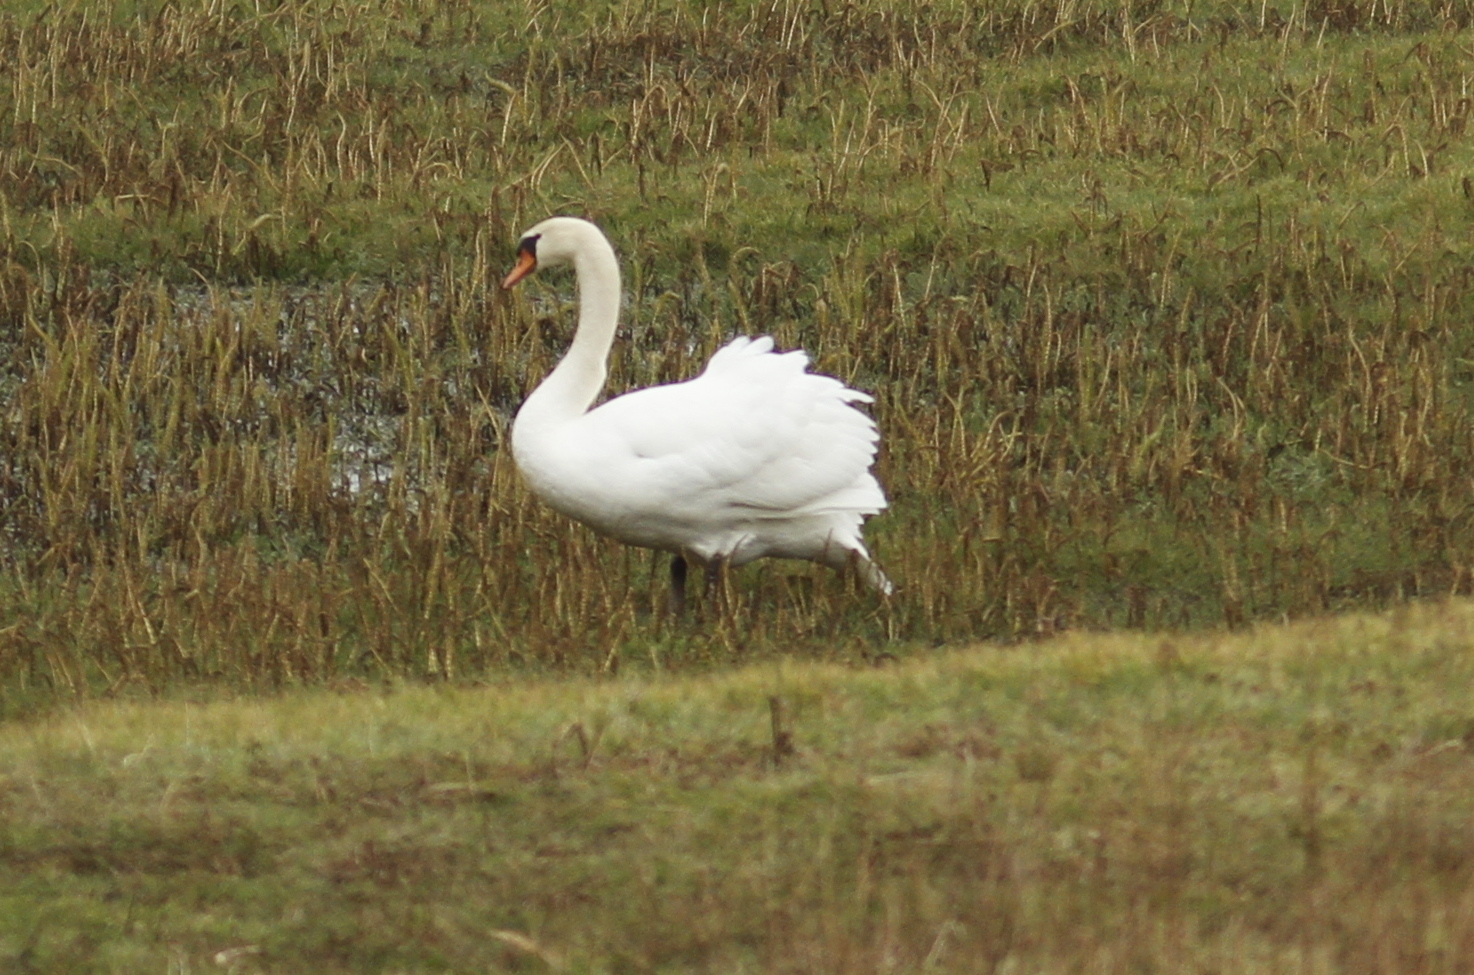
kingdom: Animalia
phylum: Chordata
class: Aves
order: Anseriformes
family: Anatidae
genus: Cygnus
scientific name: Cygnus olor
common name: Mute swan
